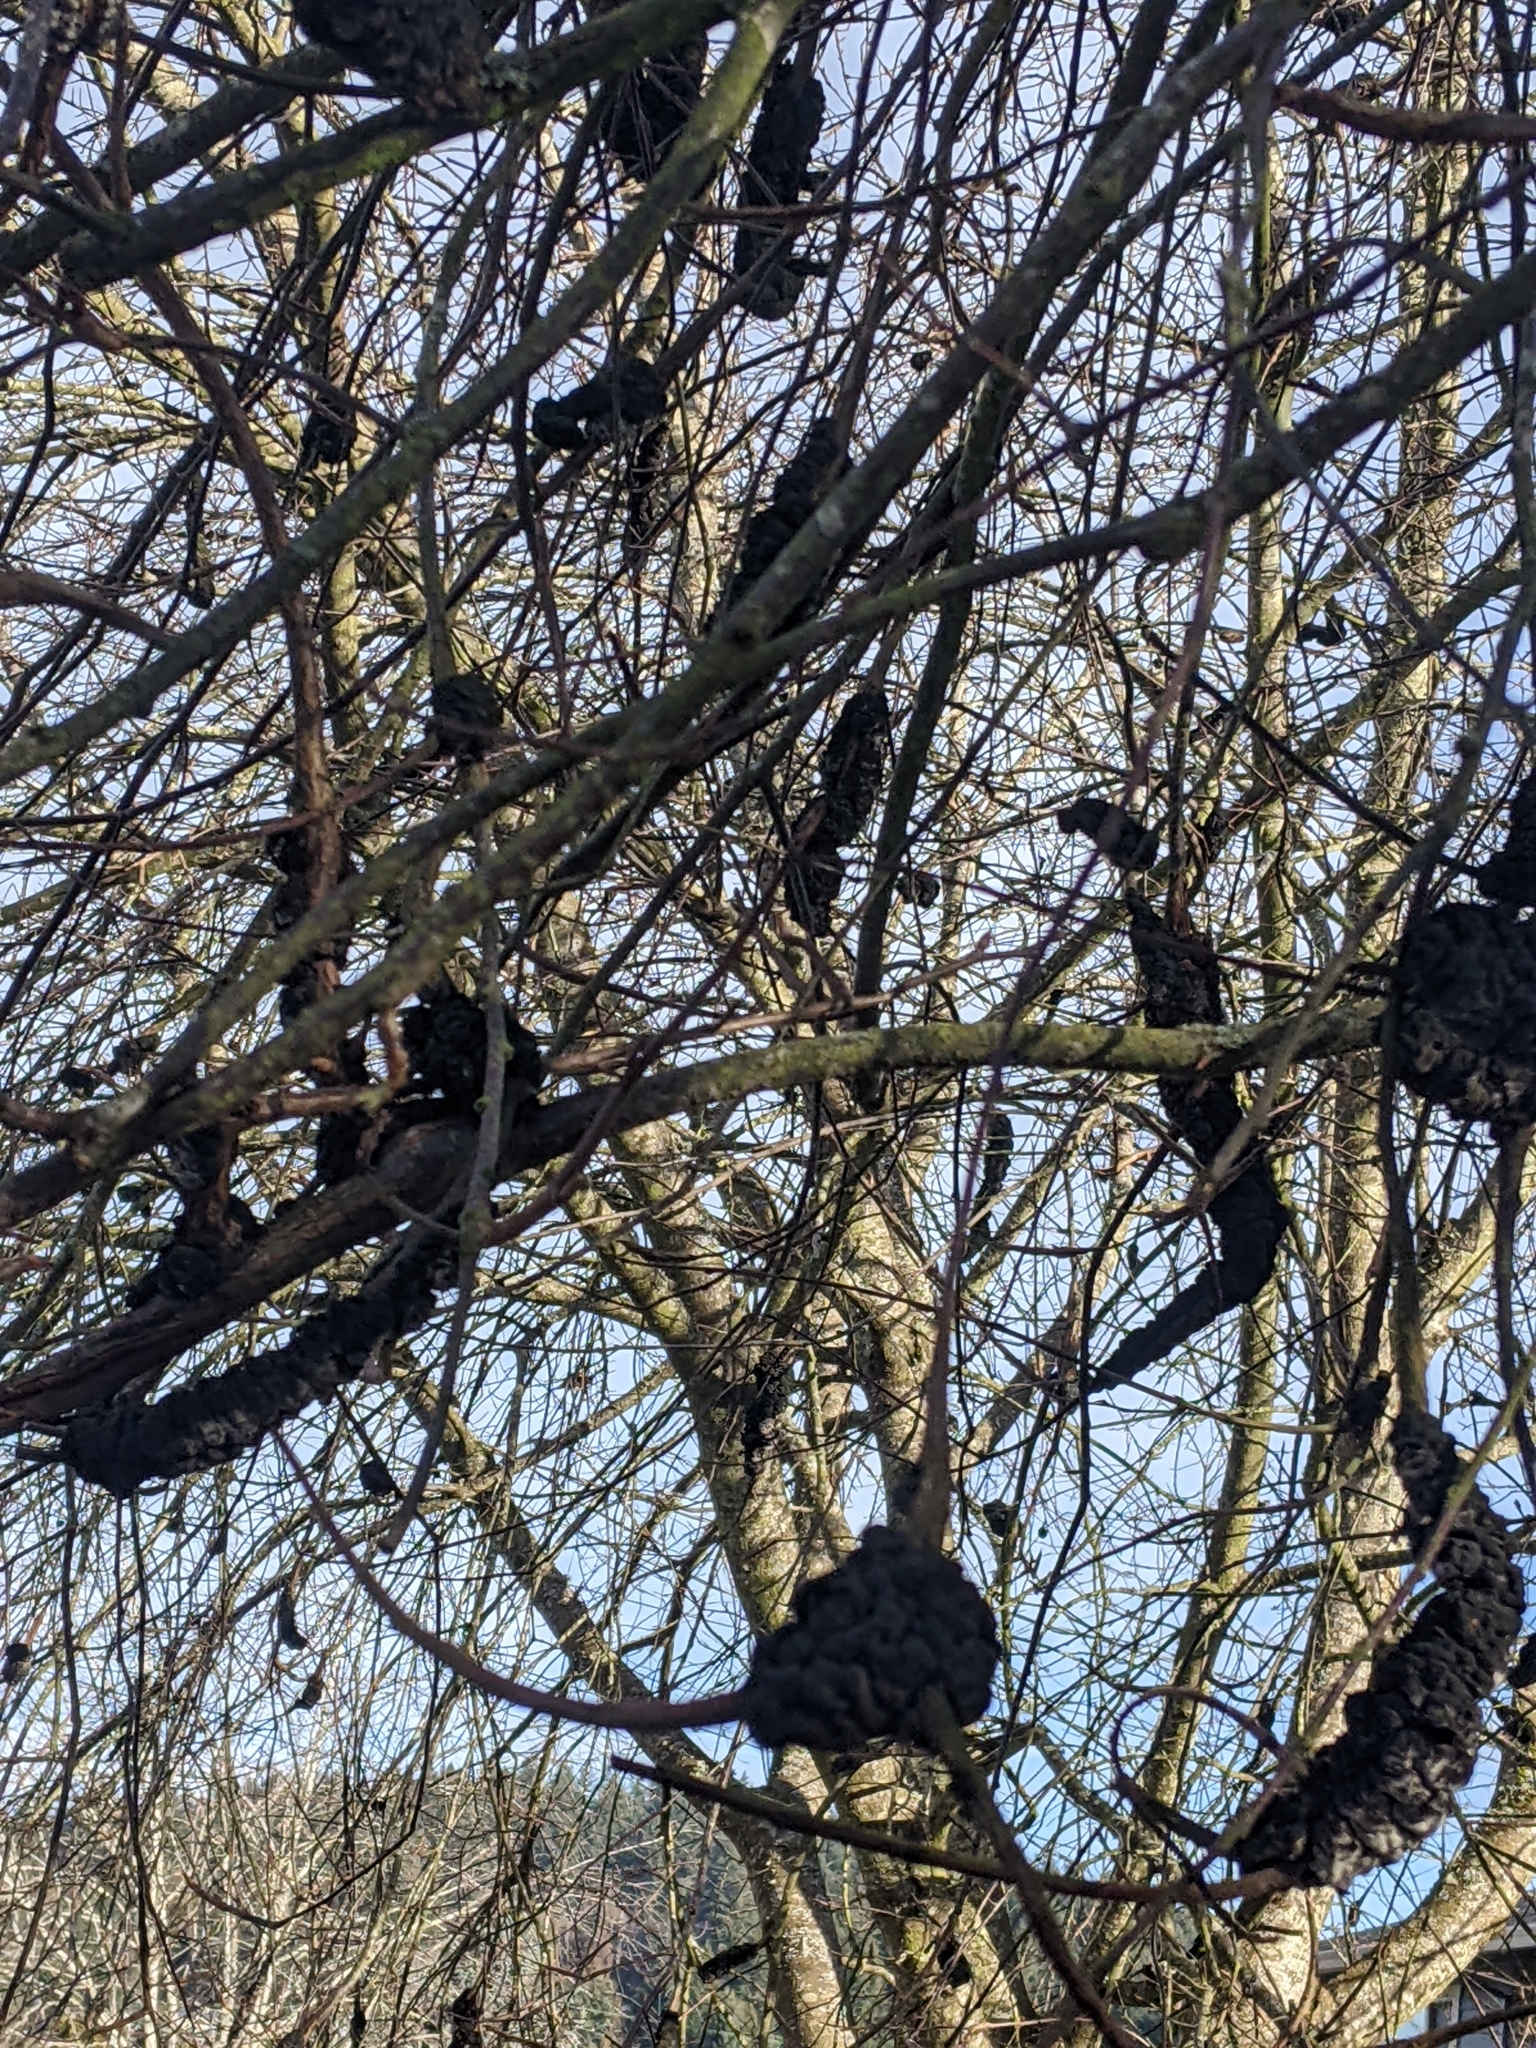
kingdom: Fungi
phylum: Ascomycota
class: Dothideomycetes
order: Venturiales
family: Venturiaceae
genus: Apiosporina
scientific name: Apiosporina morbosa
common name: Black knot
